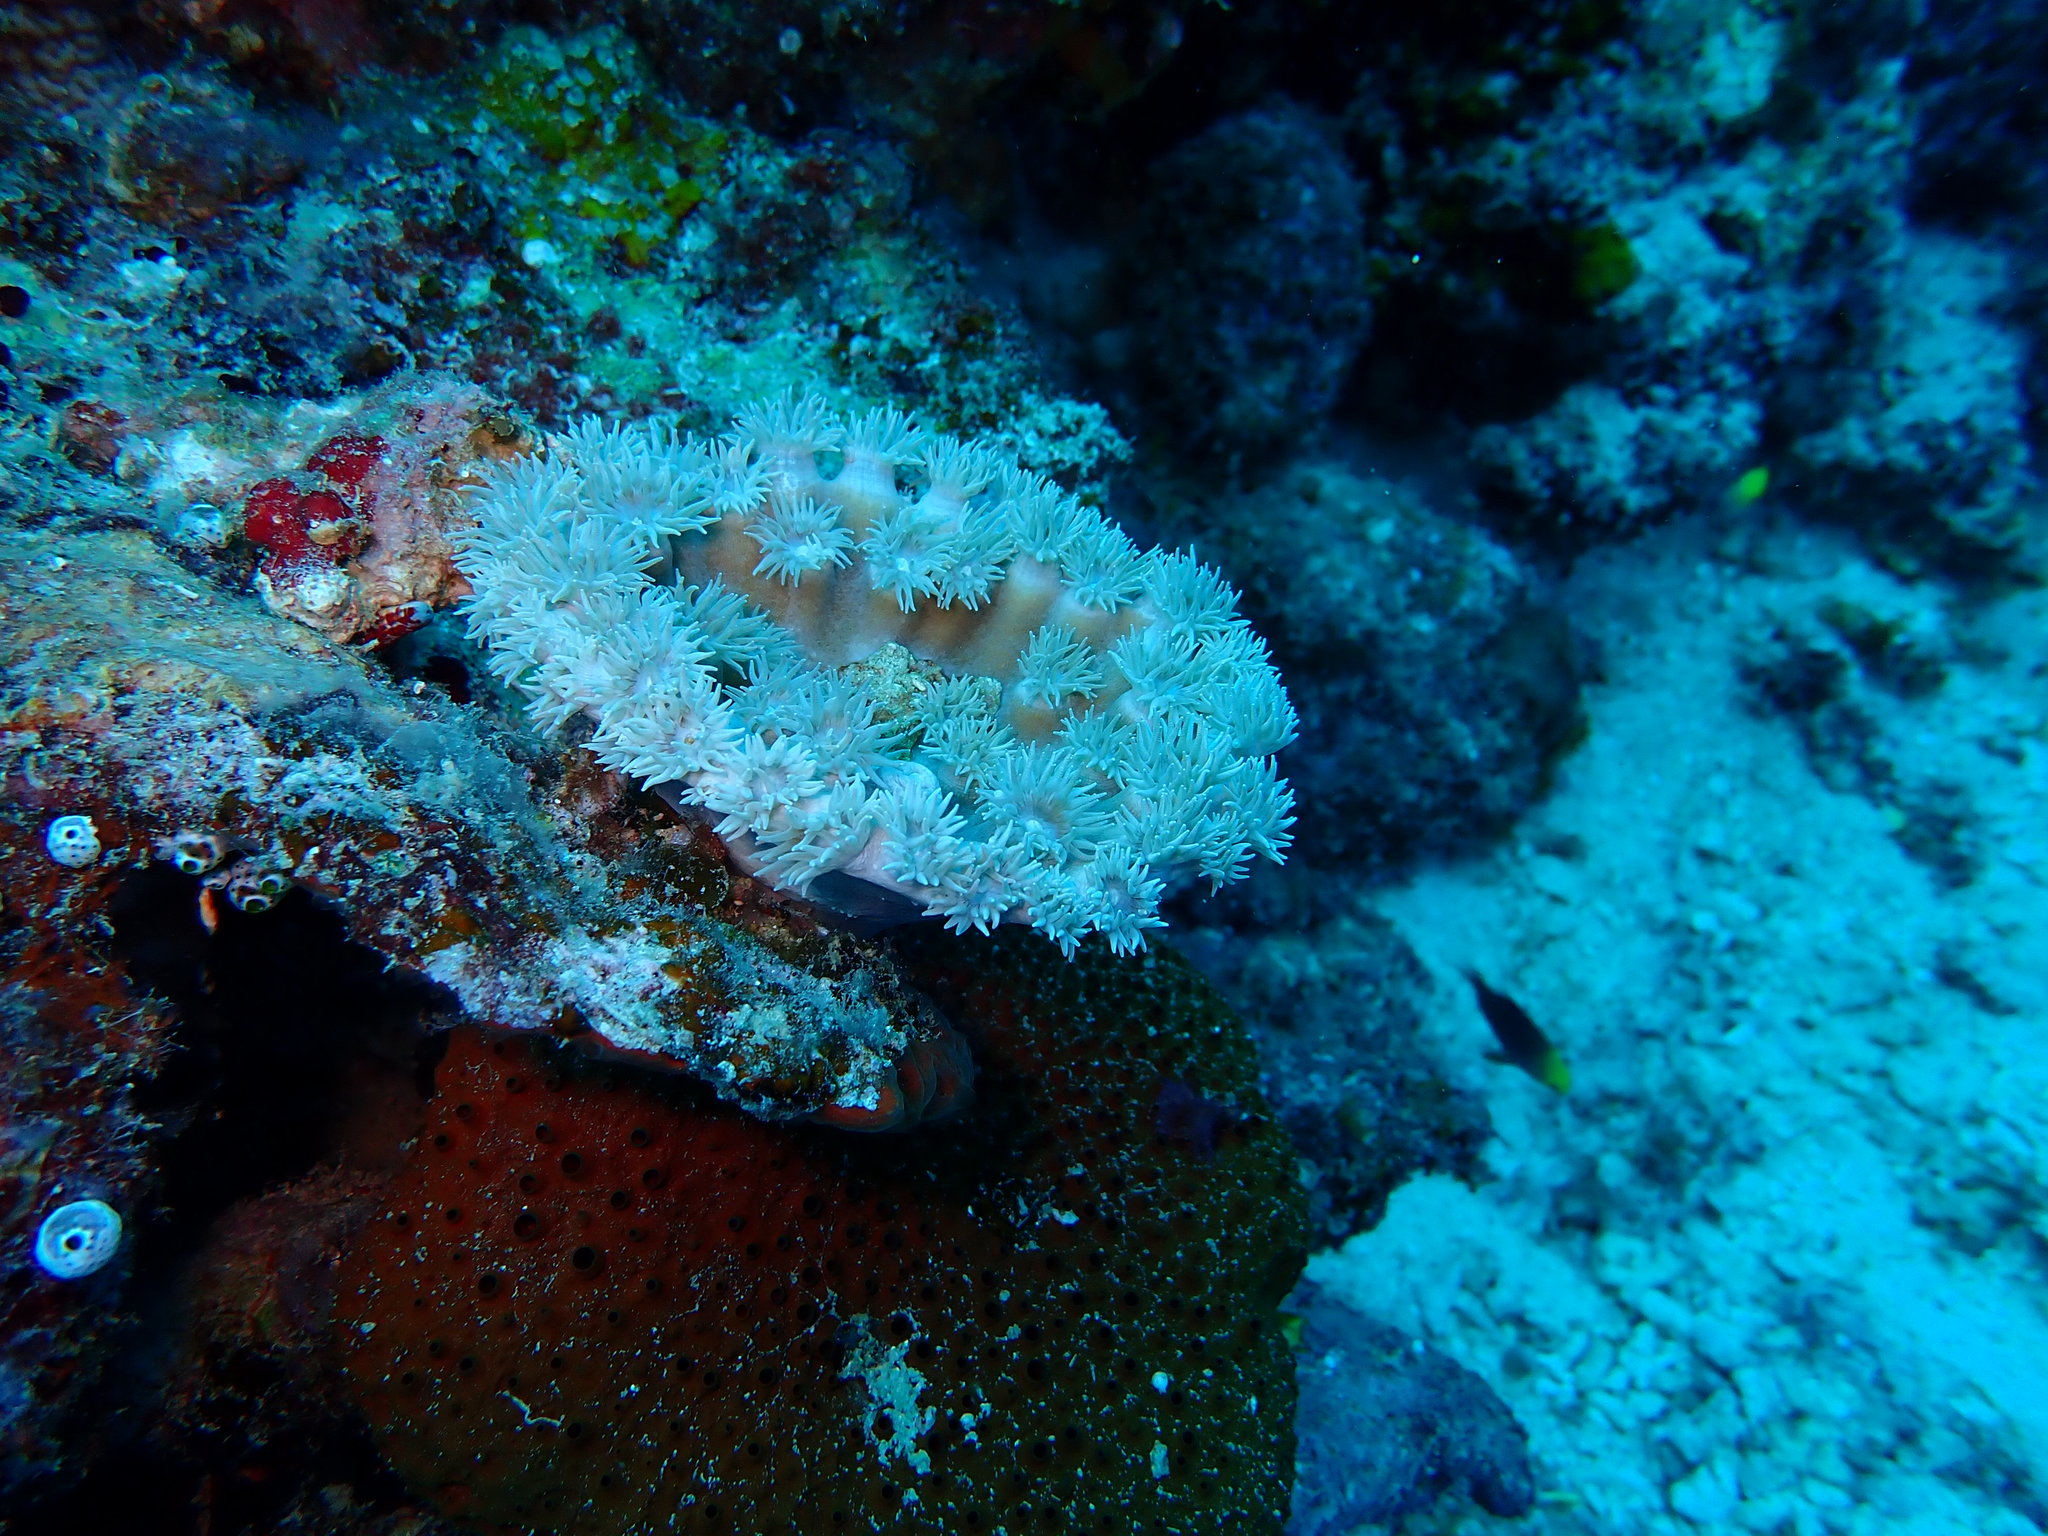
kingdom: Animalia
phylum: Cnidaria
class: Anthozoa
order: Scleractinia
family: Dendrophylliidae
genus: Duncanopsammia
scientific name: Duncanopsammia peltata
